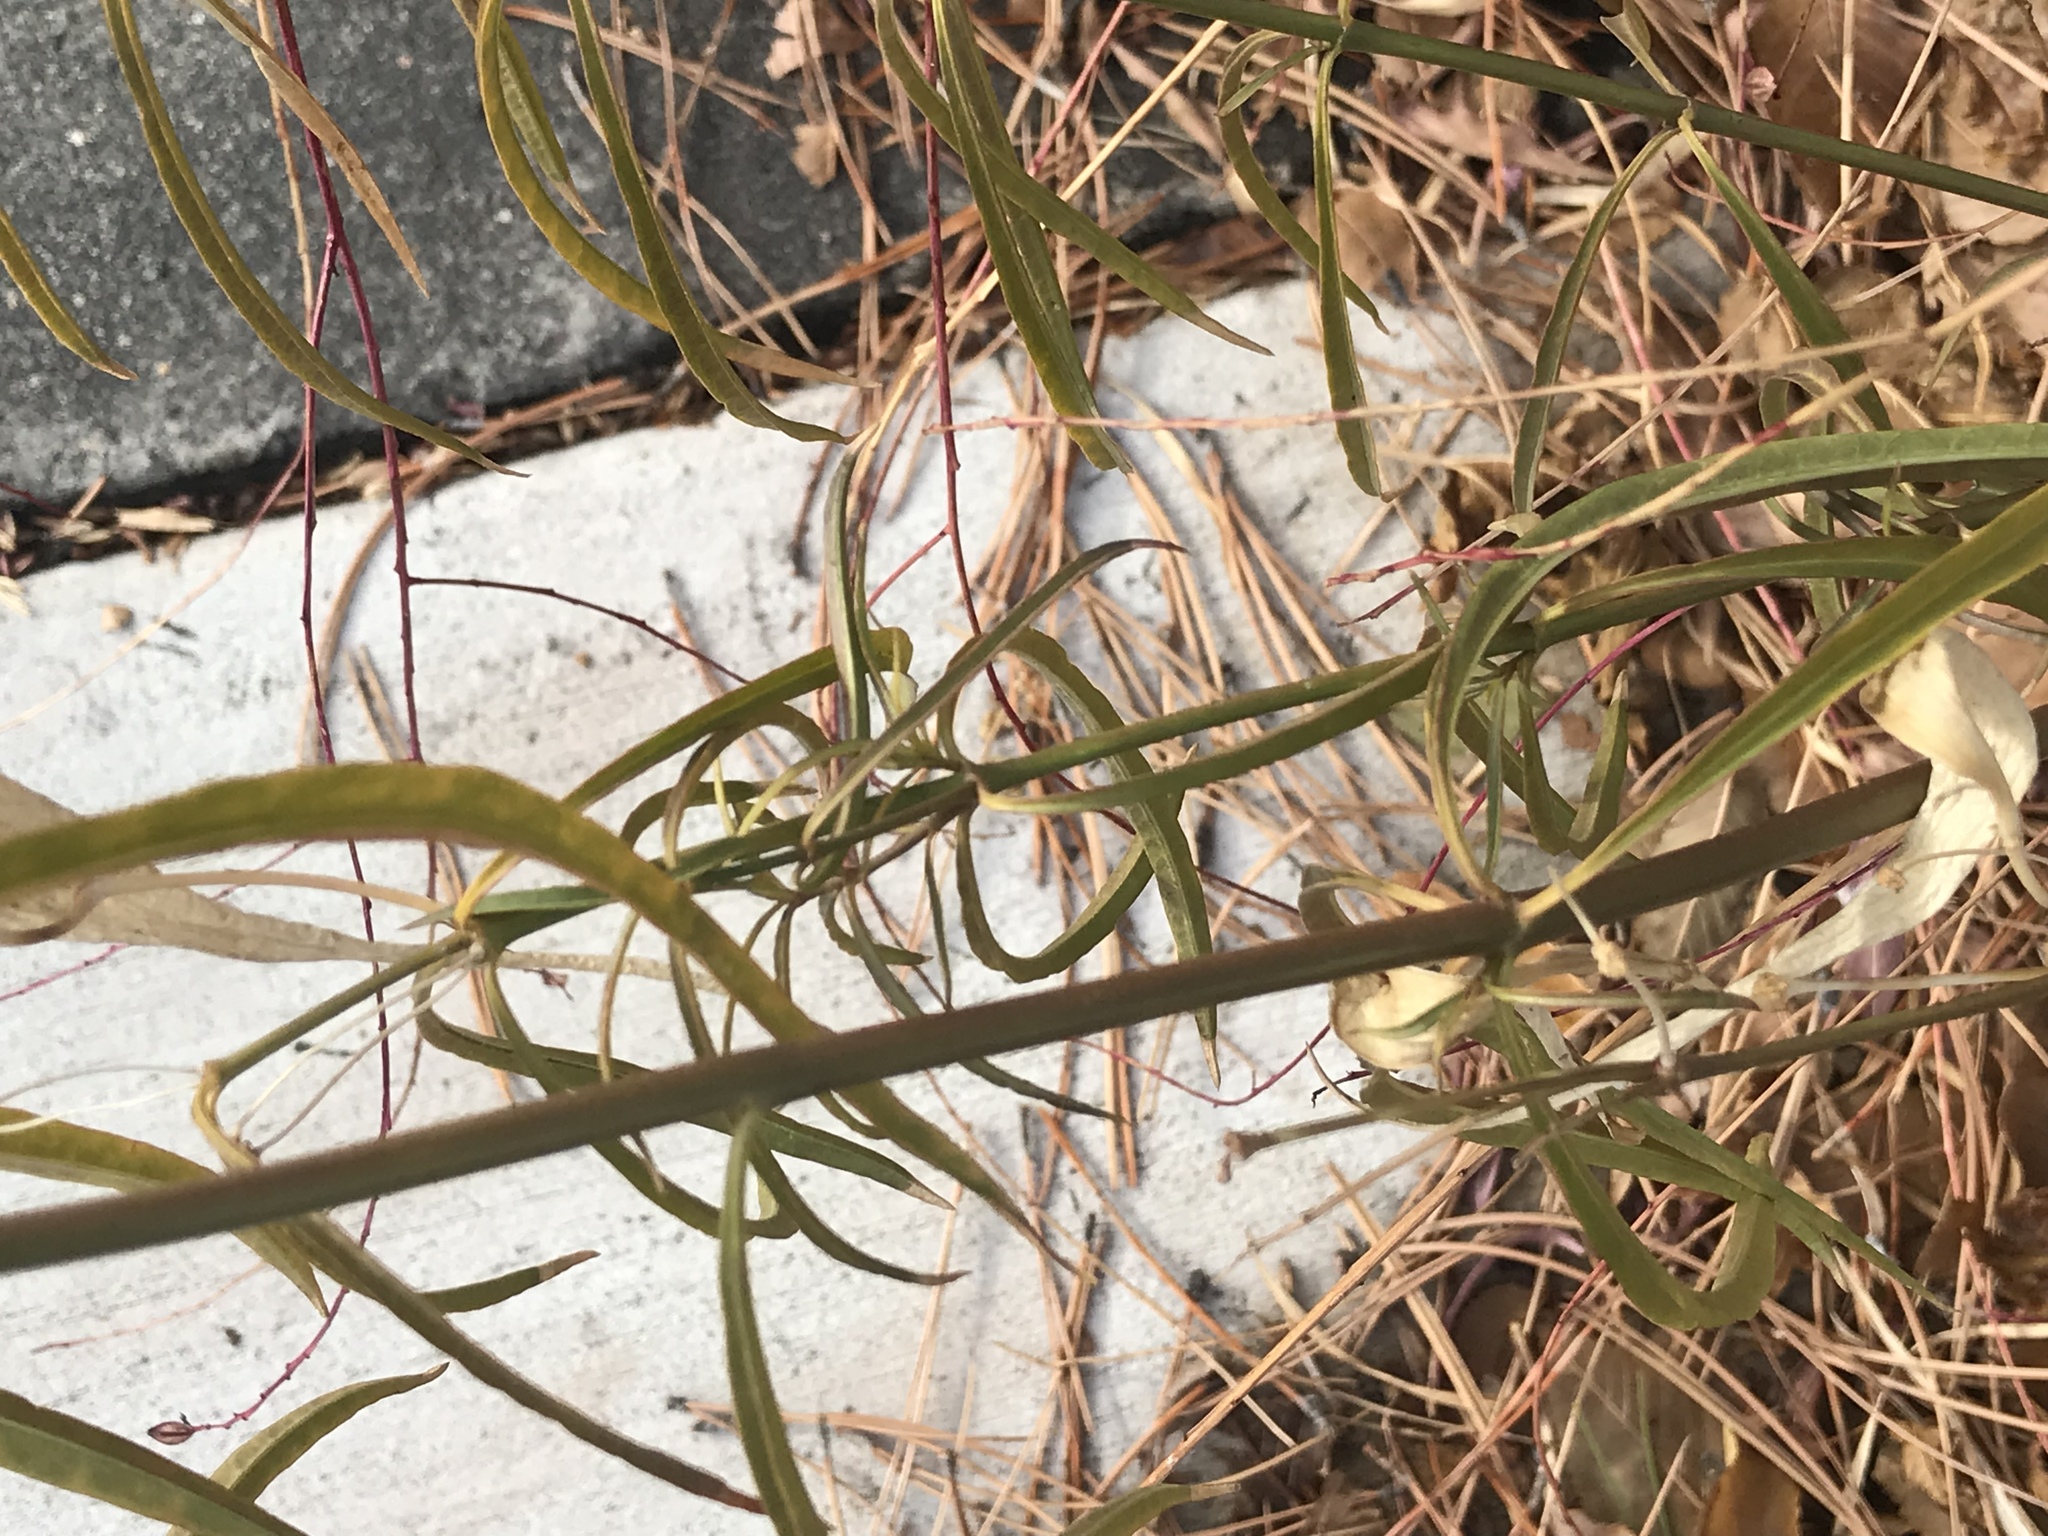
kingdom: Plantae
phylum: Tracheophyta
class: Magnoliopsida
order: Gentianales
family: Apocynaceae
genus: Asclepias
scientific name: Asclepias fascicularis
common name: Mexican milkweed
